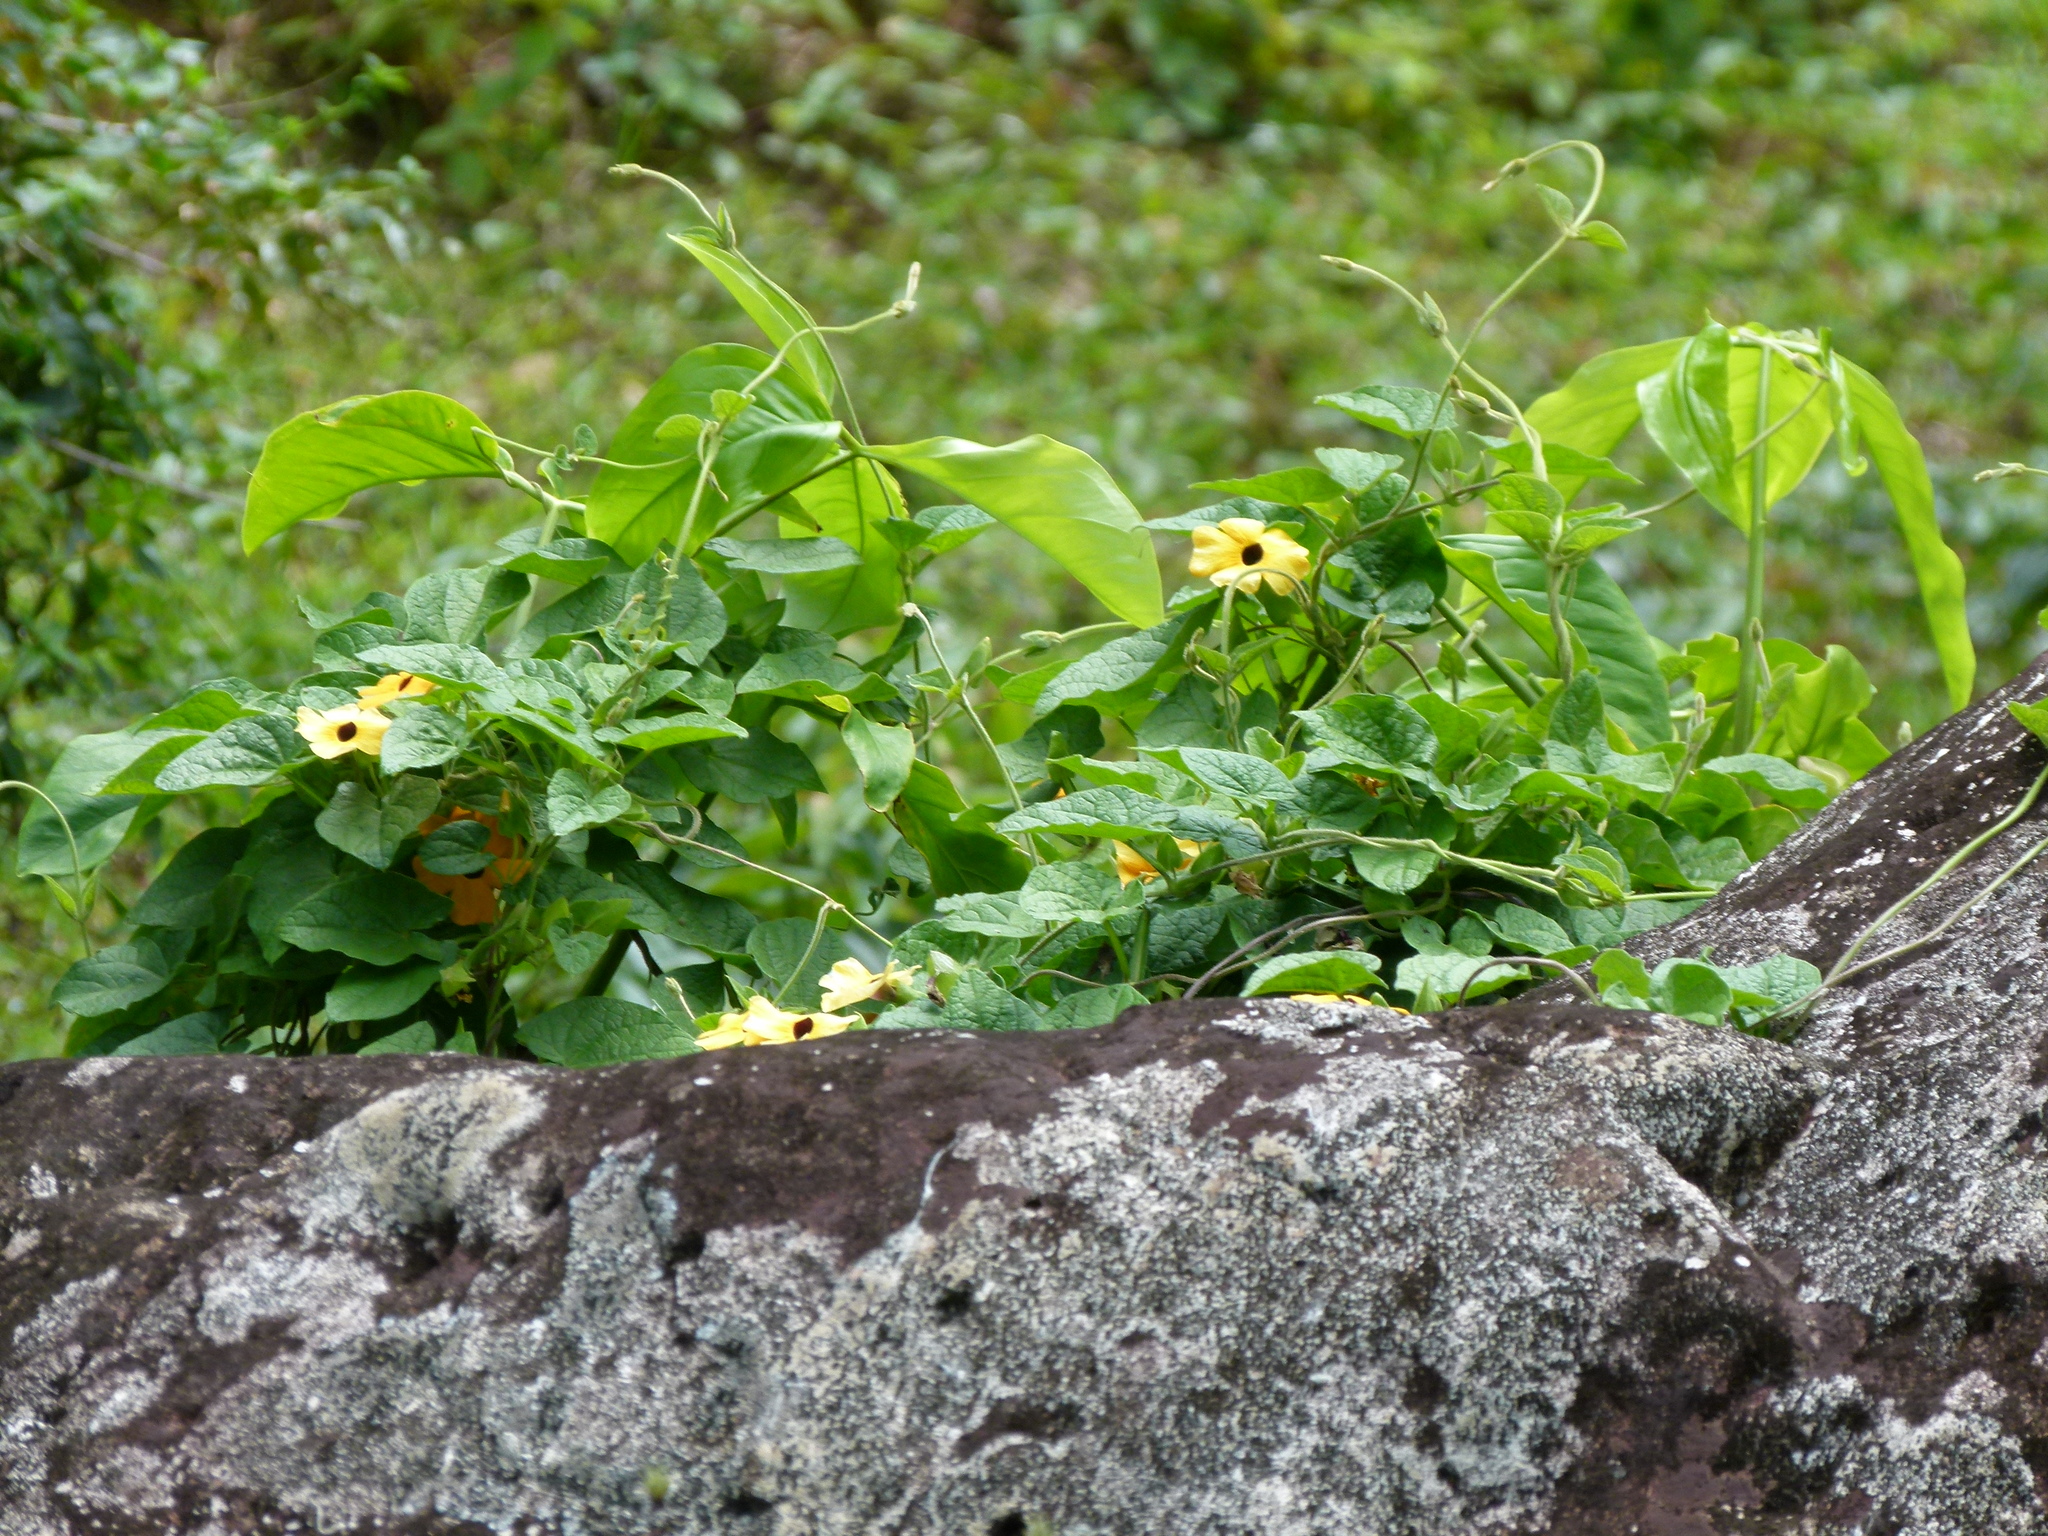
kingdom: Plantae
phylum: Tracheophyta
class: Magnoliopsida
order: Lamiales
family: Acanthaceae
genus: Thunbergia
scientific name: Thunbergia alata
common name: Blackeyed susan vine
